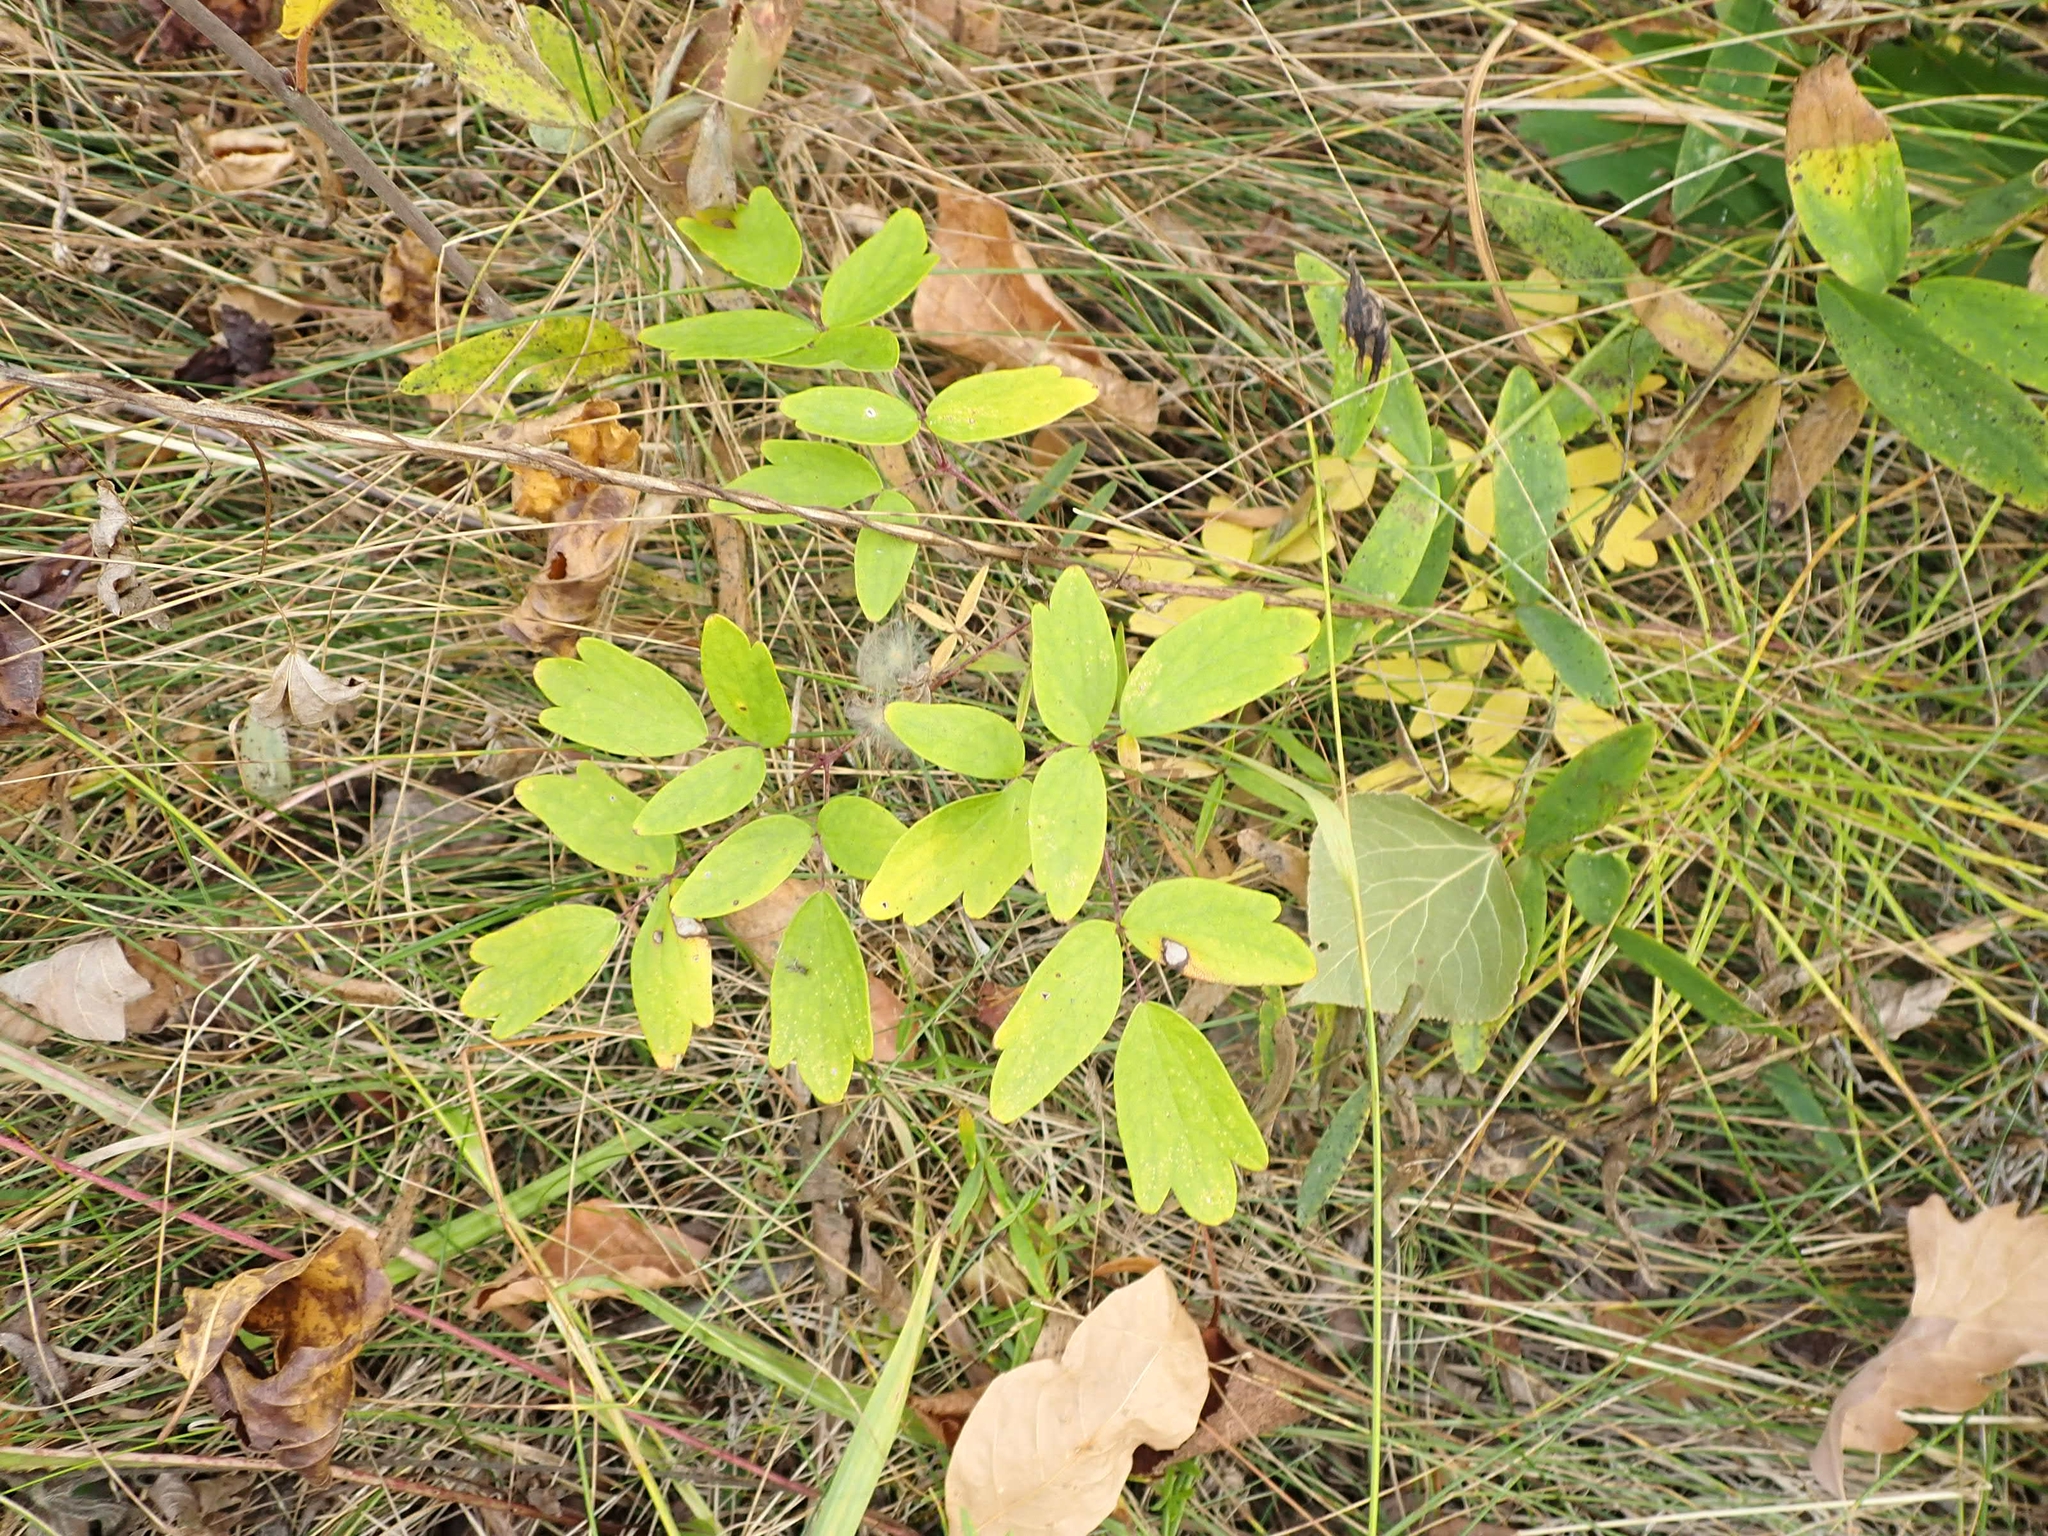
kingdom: Plantae
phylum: Tracheophyta
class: Magnoliopsida
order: Ranunculales
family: Ranunculaceae
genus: Thalictrum
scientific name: Thalictrum dasycarpum
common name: Purple meadow-rue
